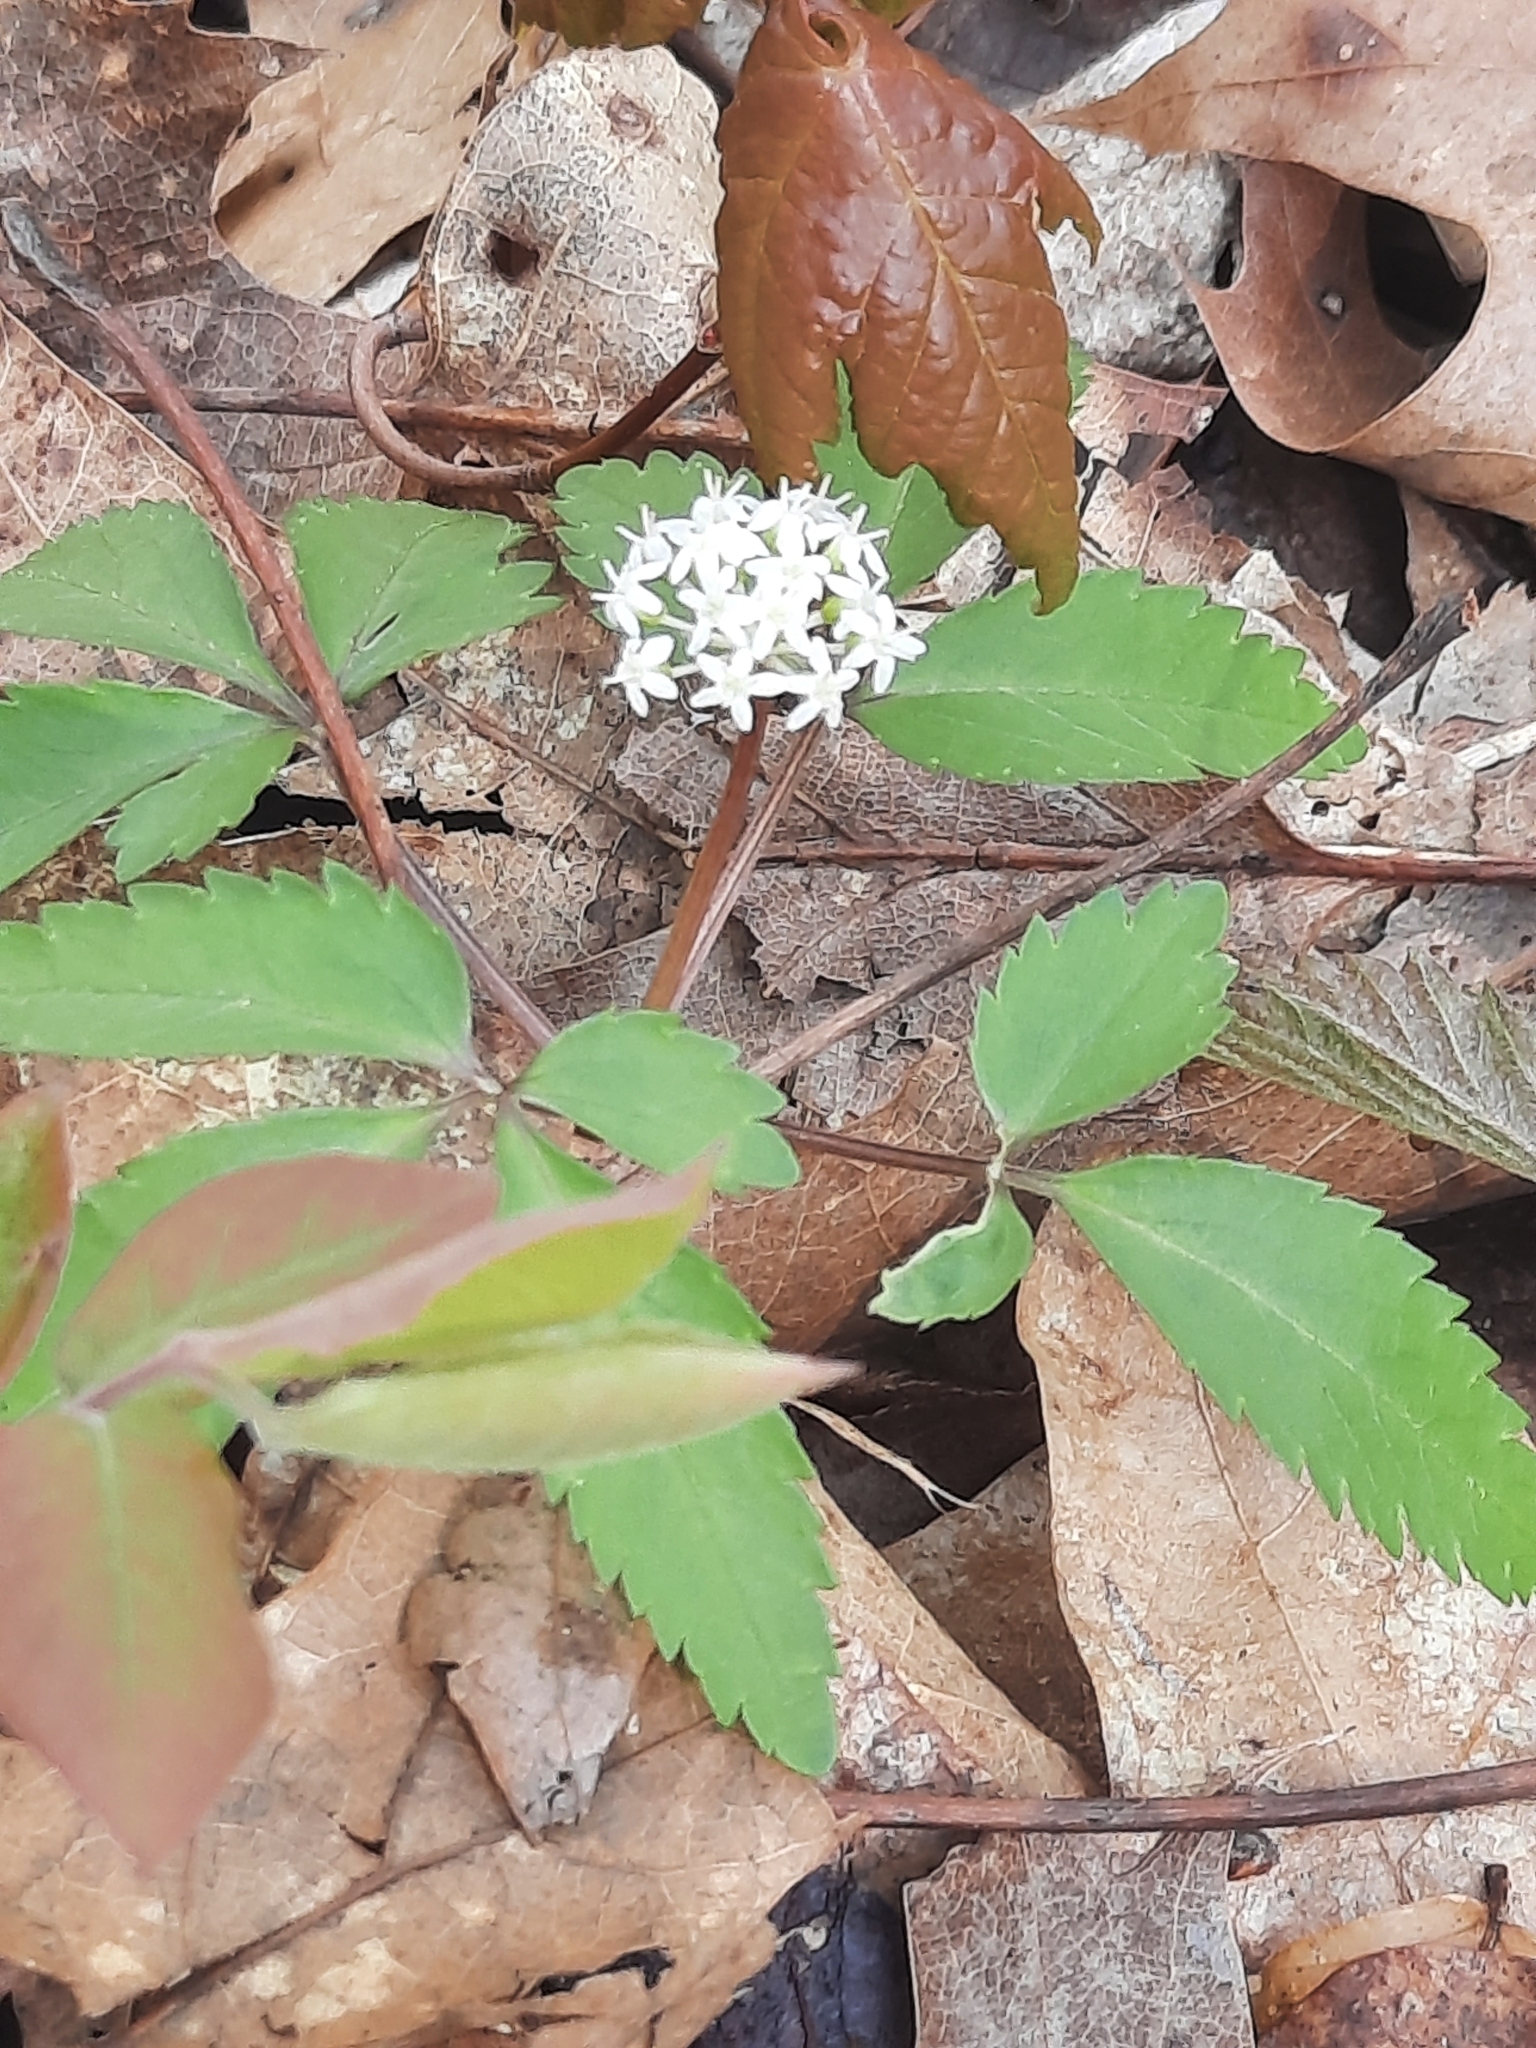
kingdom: Plantae
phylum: Tracheophyta
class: Magnoliopsida
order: Apiales
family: Araliaceae
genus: Panax
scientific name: Panax trifolius
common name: Dwarf ginseng
